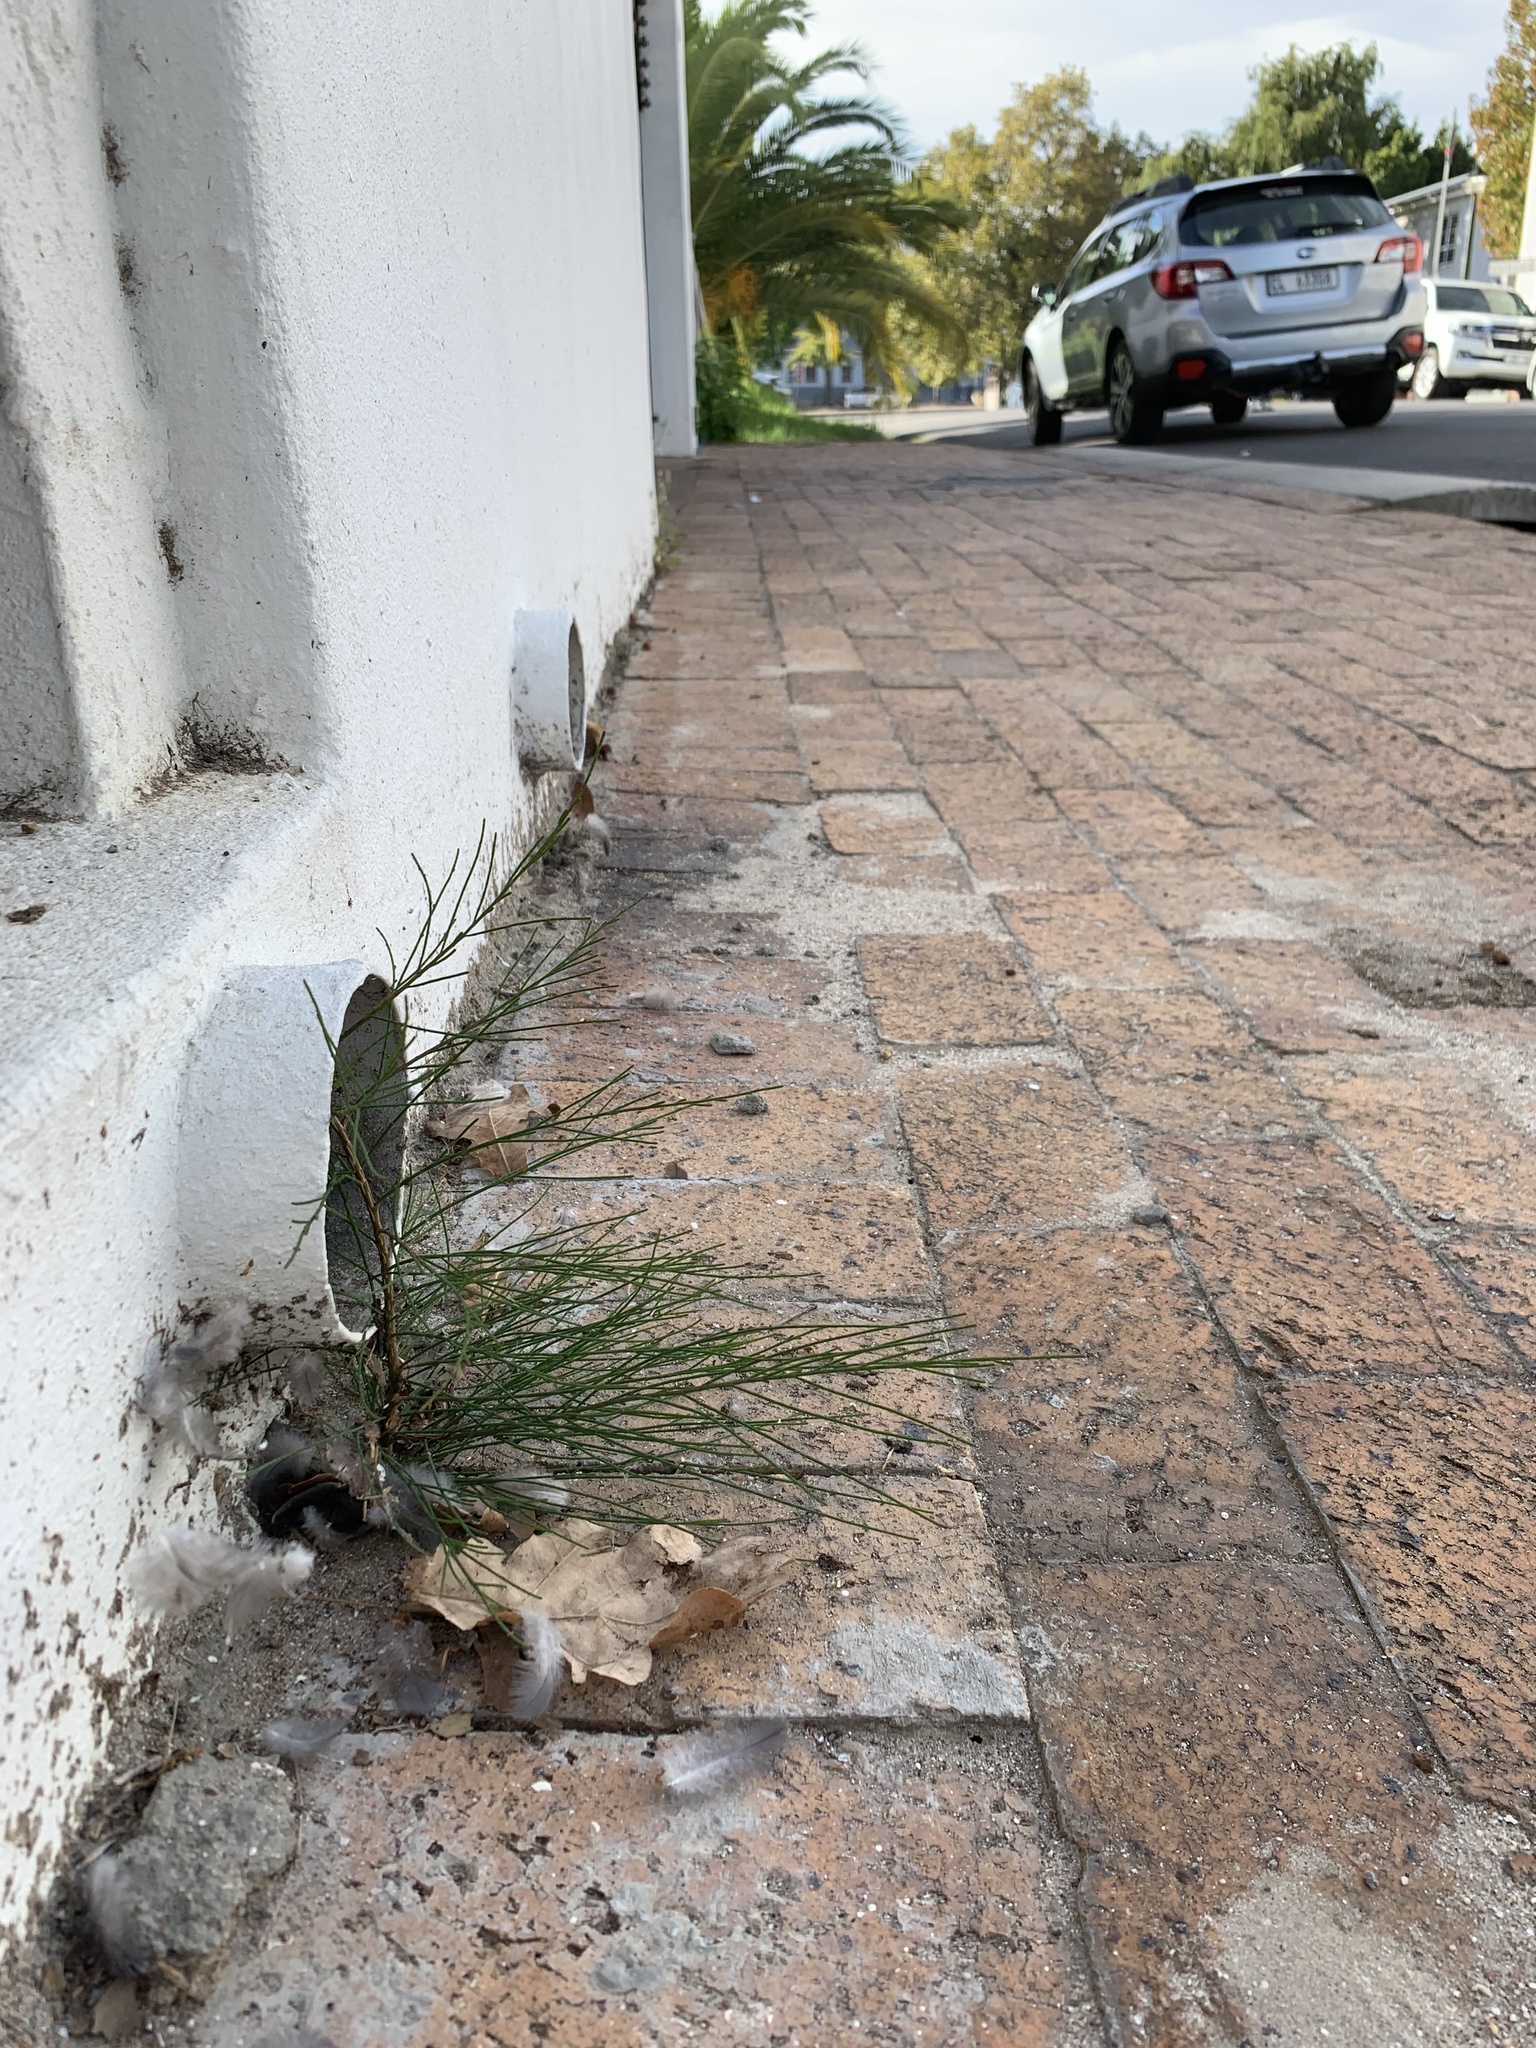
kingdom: Plantae
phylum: Tracheophyta
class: Magnoliopsida
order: Fagales
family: Casuarinaceae
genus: Casuarina
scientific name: Casuarina cunninghamiana
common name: River sheoak
